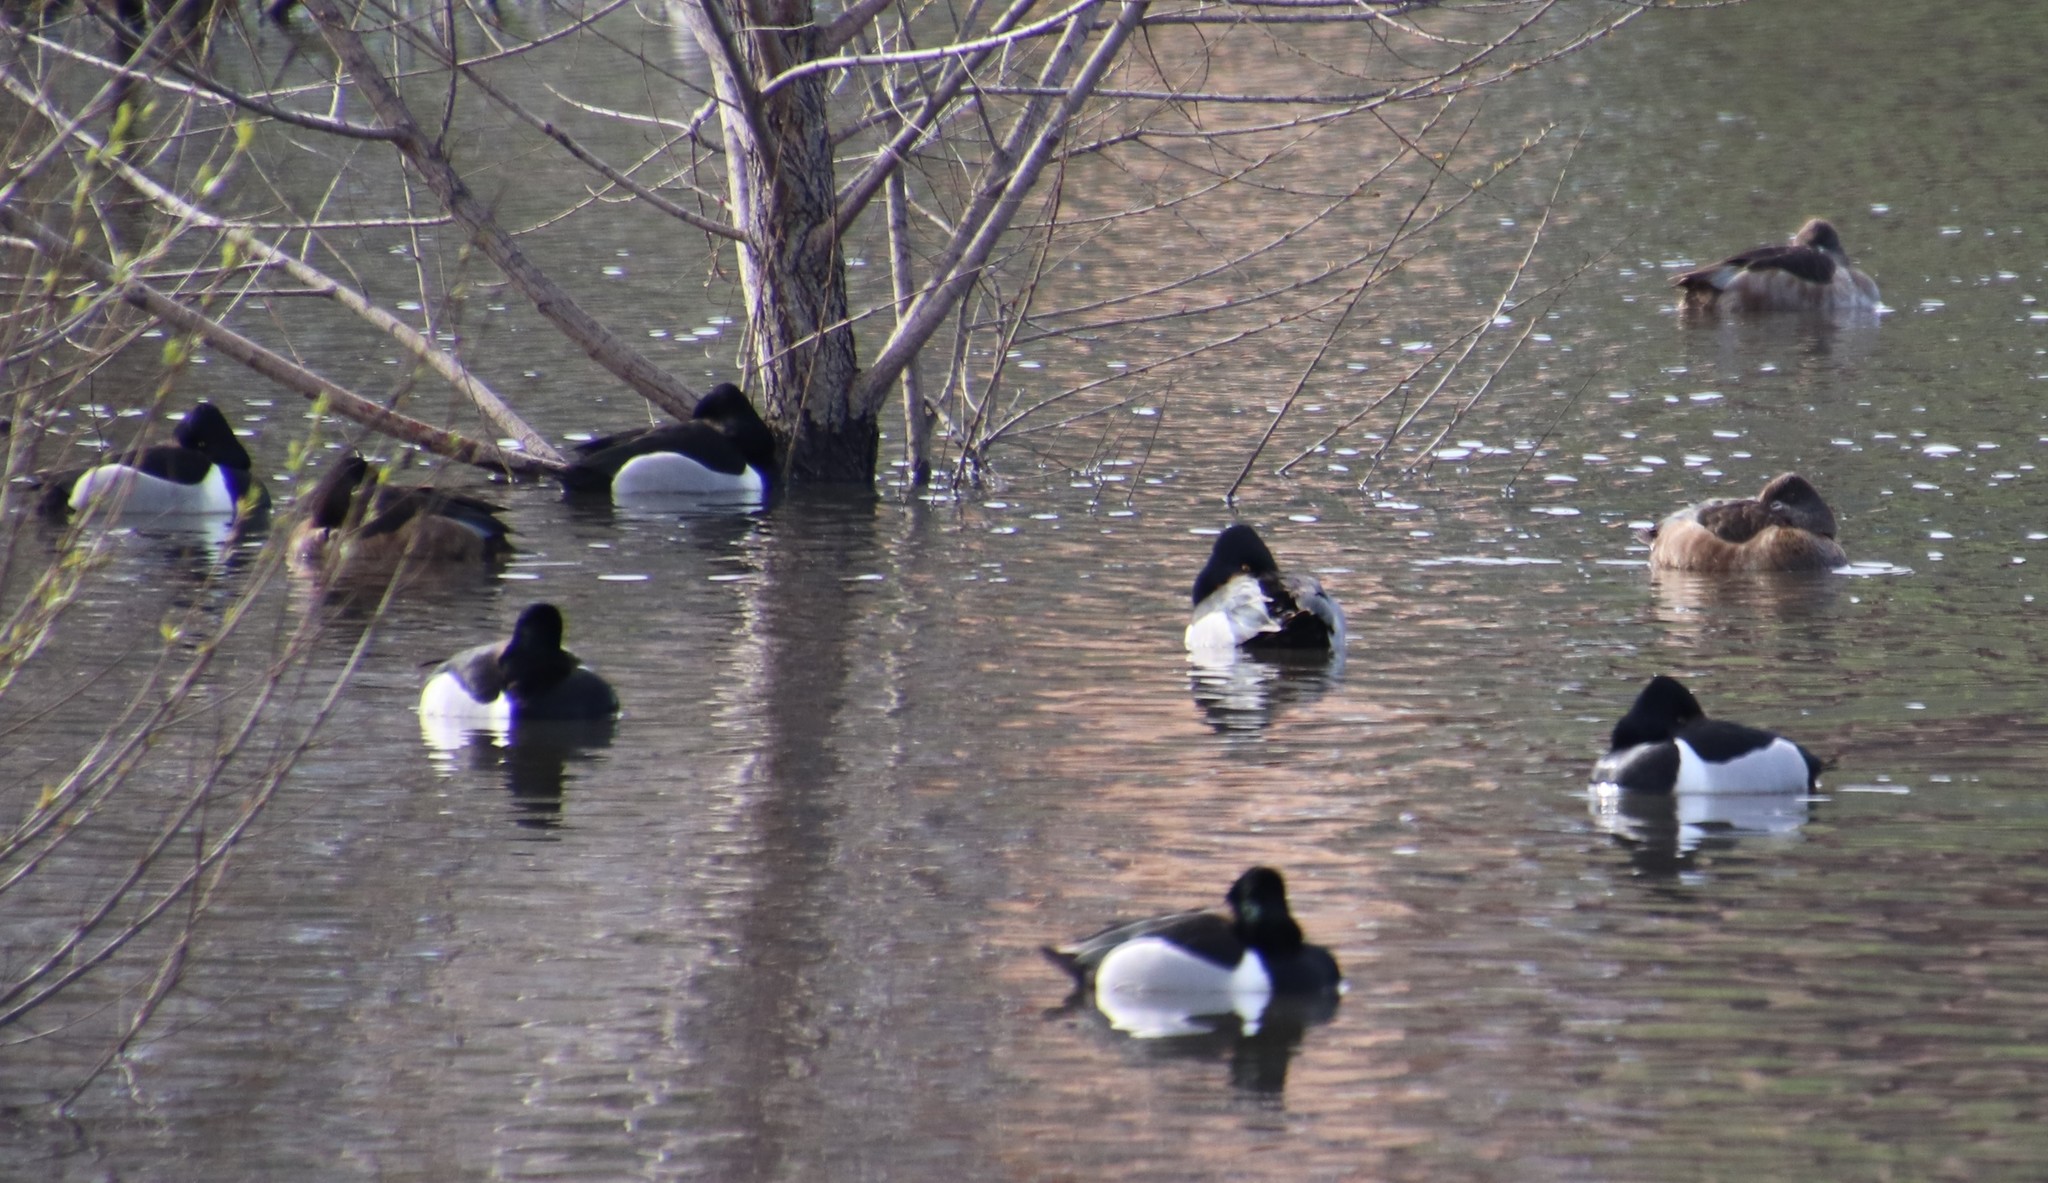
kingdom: Animalia
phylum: Chordata
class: Aves
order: Anseriformes
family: Anatidae
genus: Aythya
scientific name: Aythya collaris
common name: Ring-necked duck
